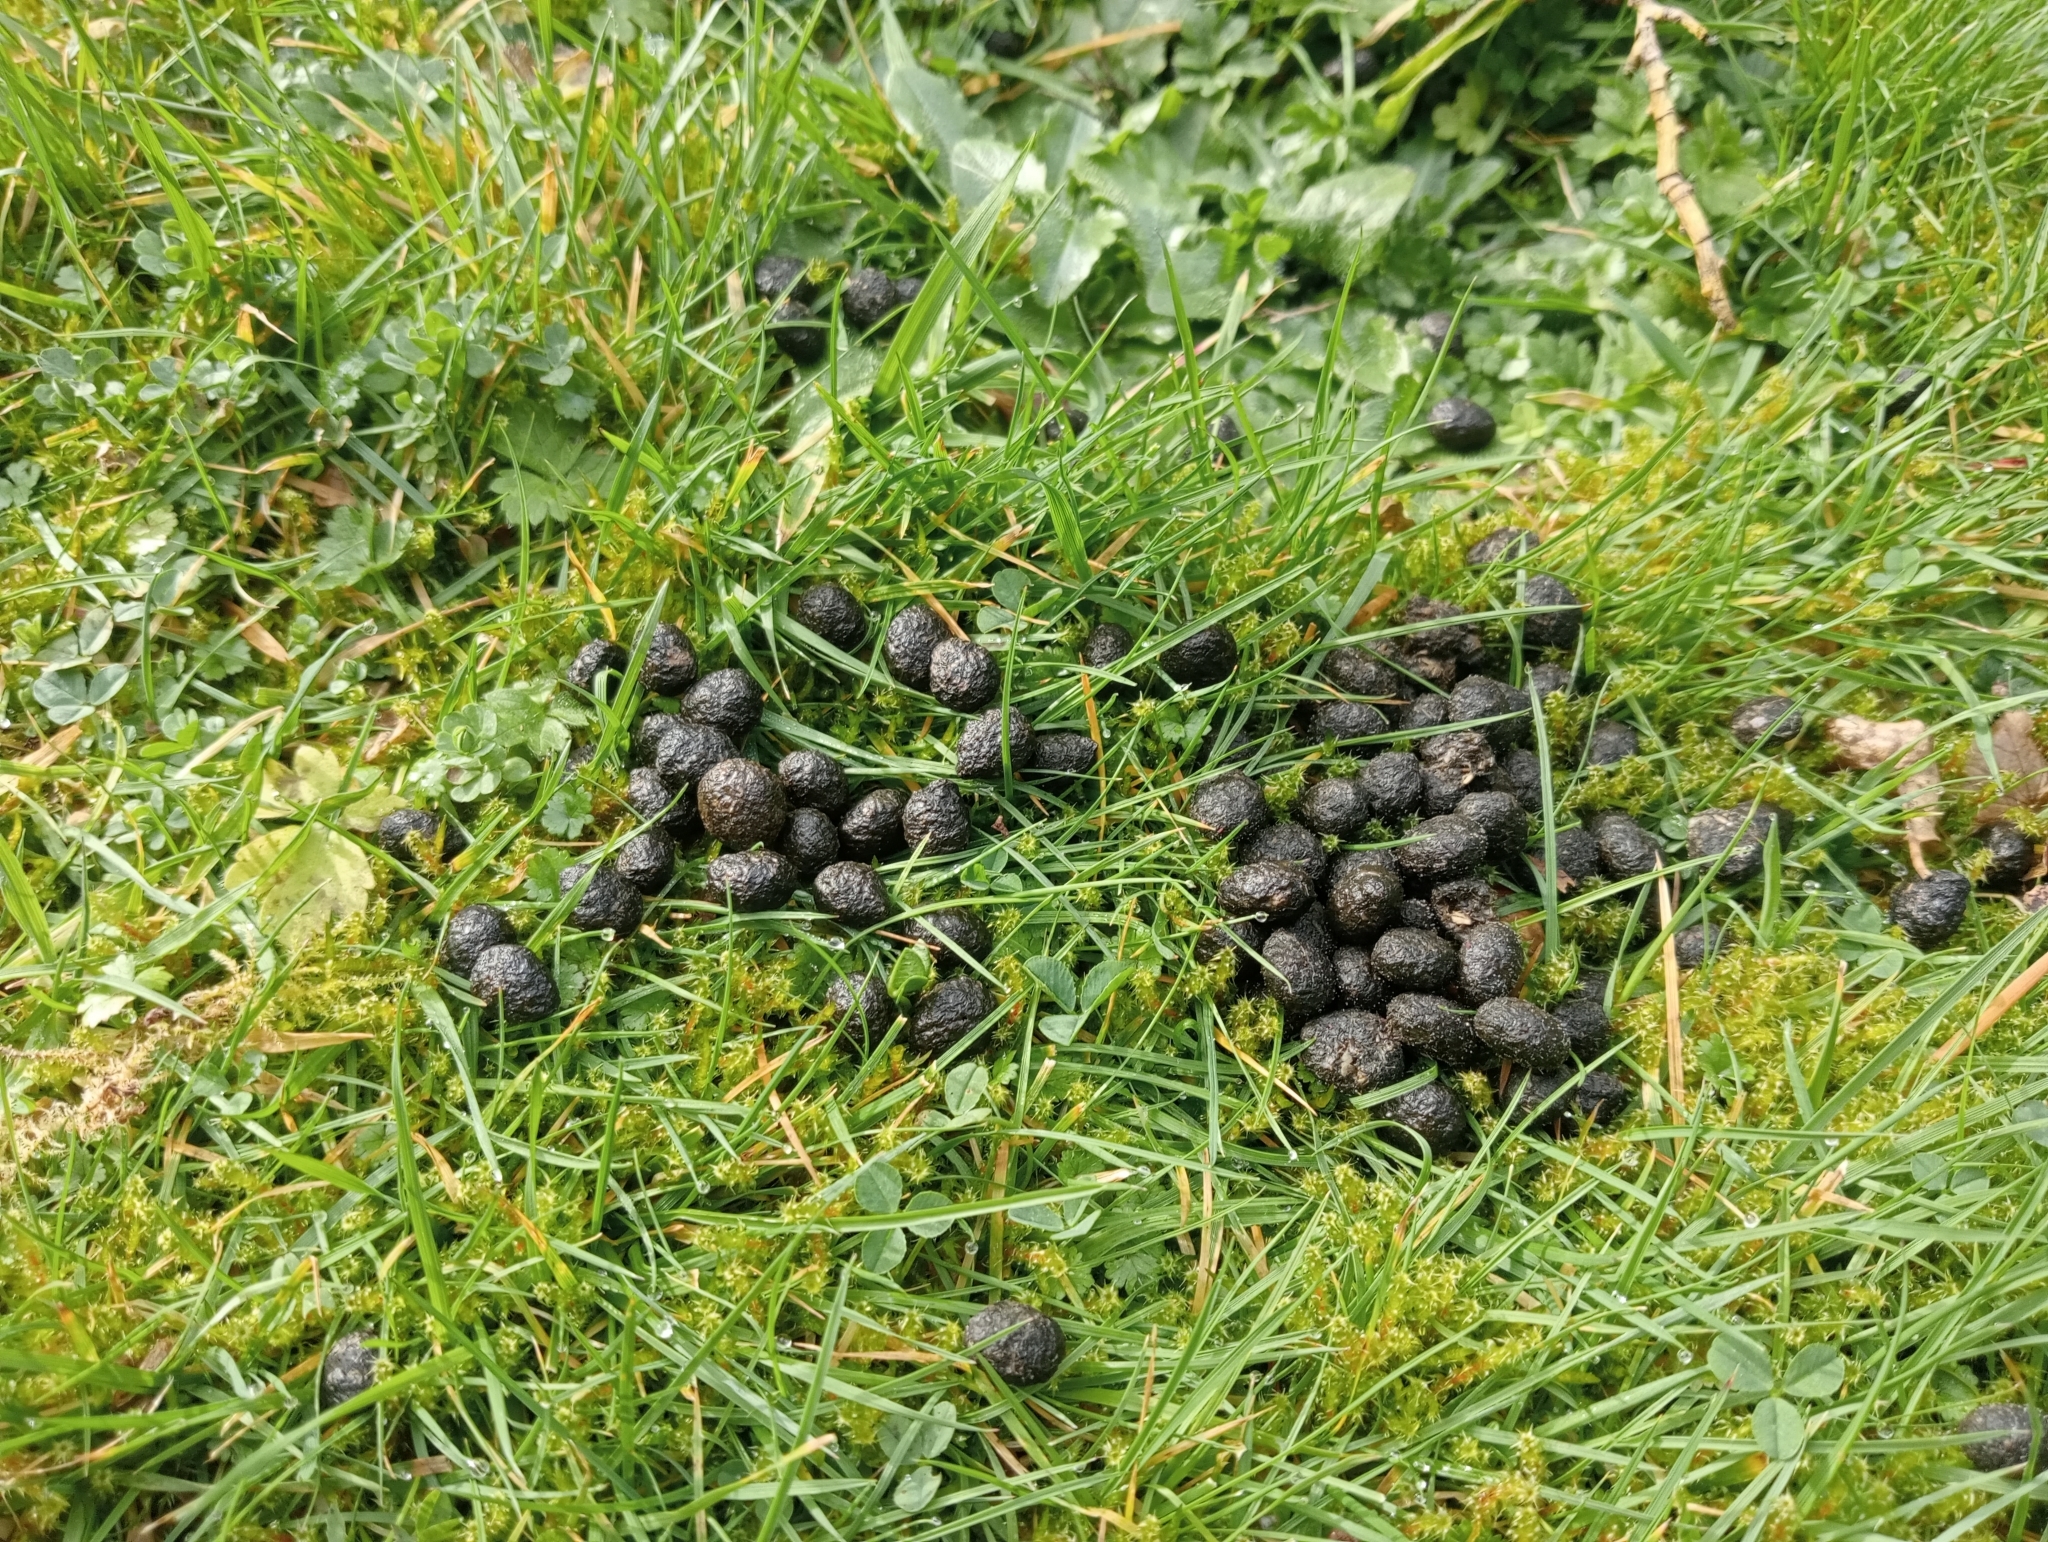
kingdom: Animalia
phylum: Chordata
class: Mammalia
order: Lagomorpha
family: Leporidae
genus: Oryctolagus
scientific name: Oryctolagus cuniculus
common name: European rabbit
